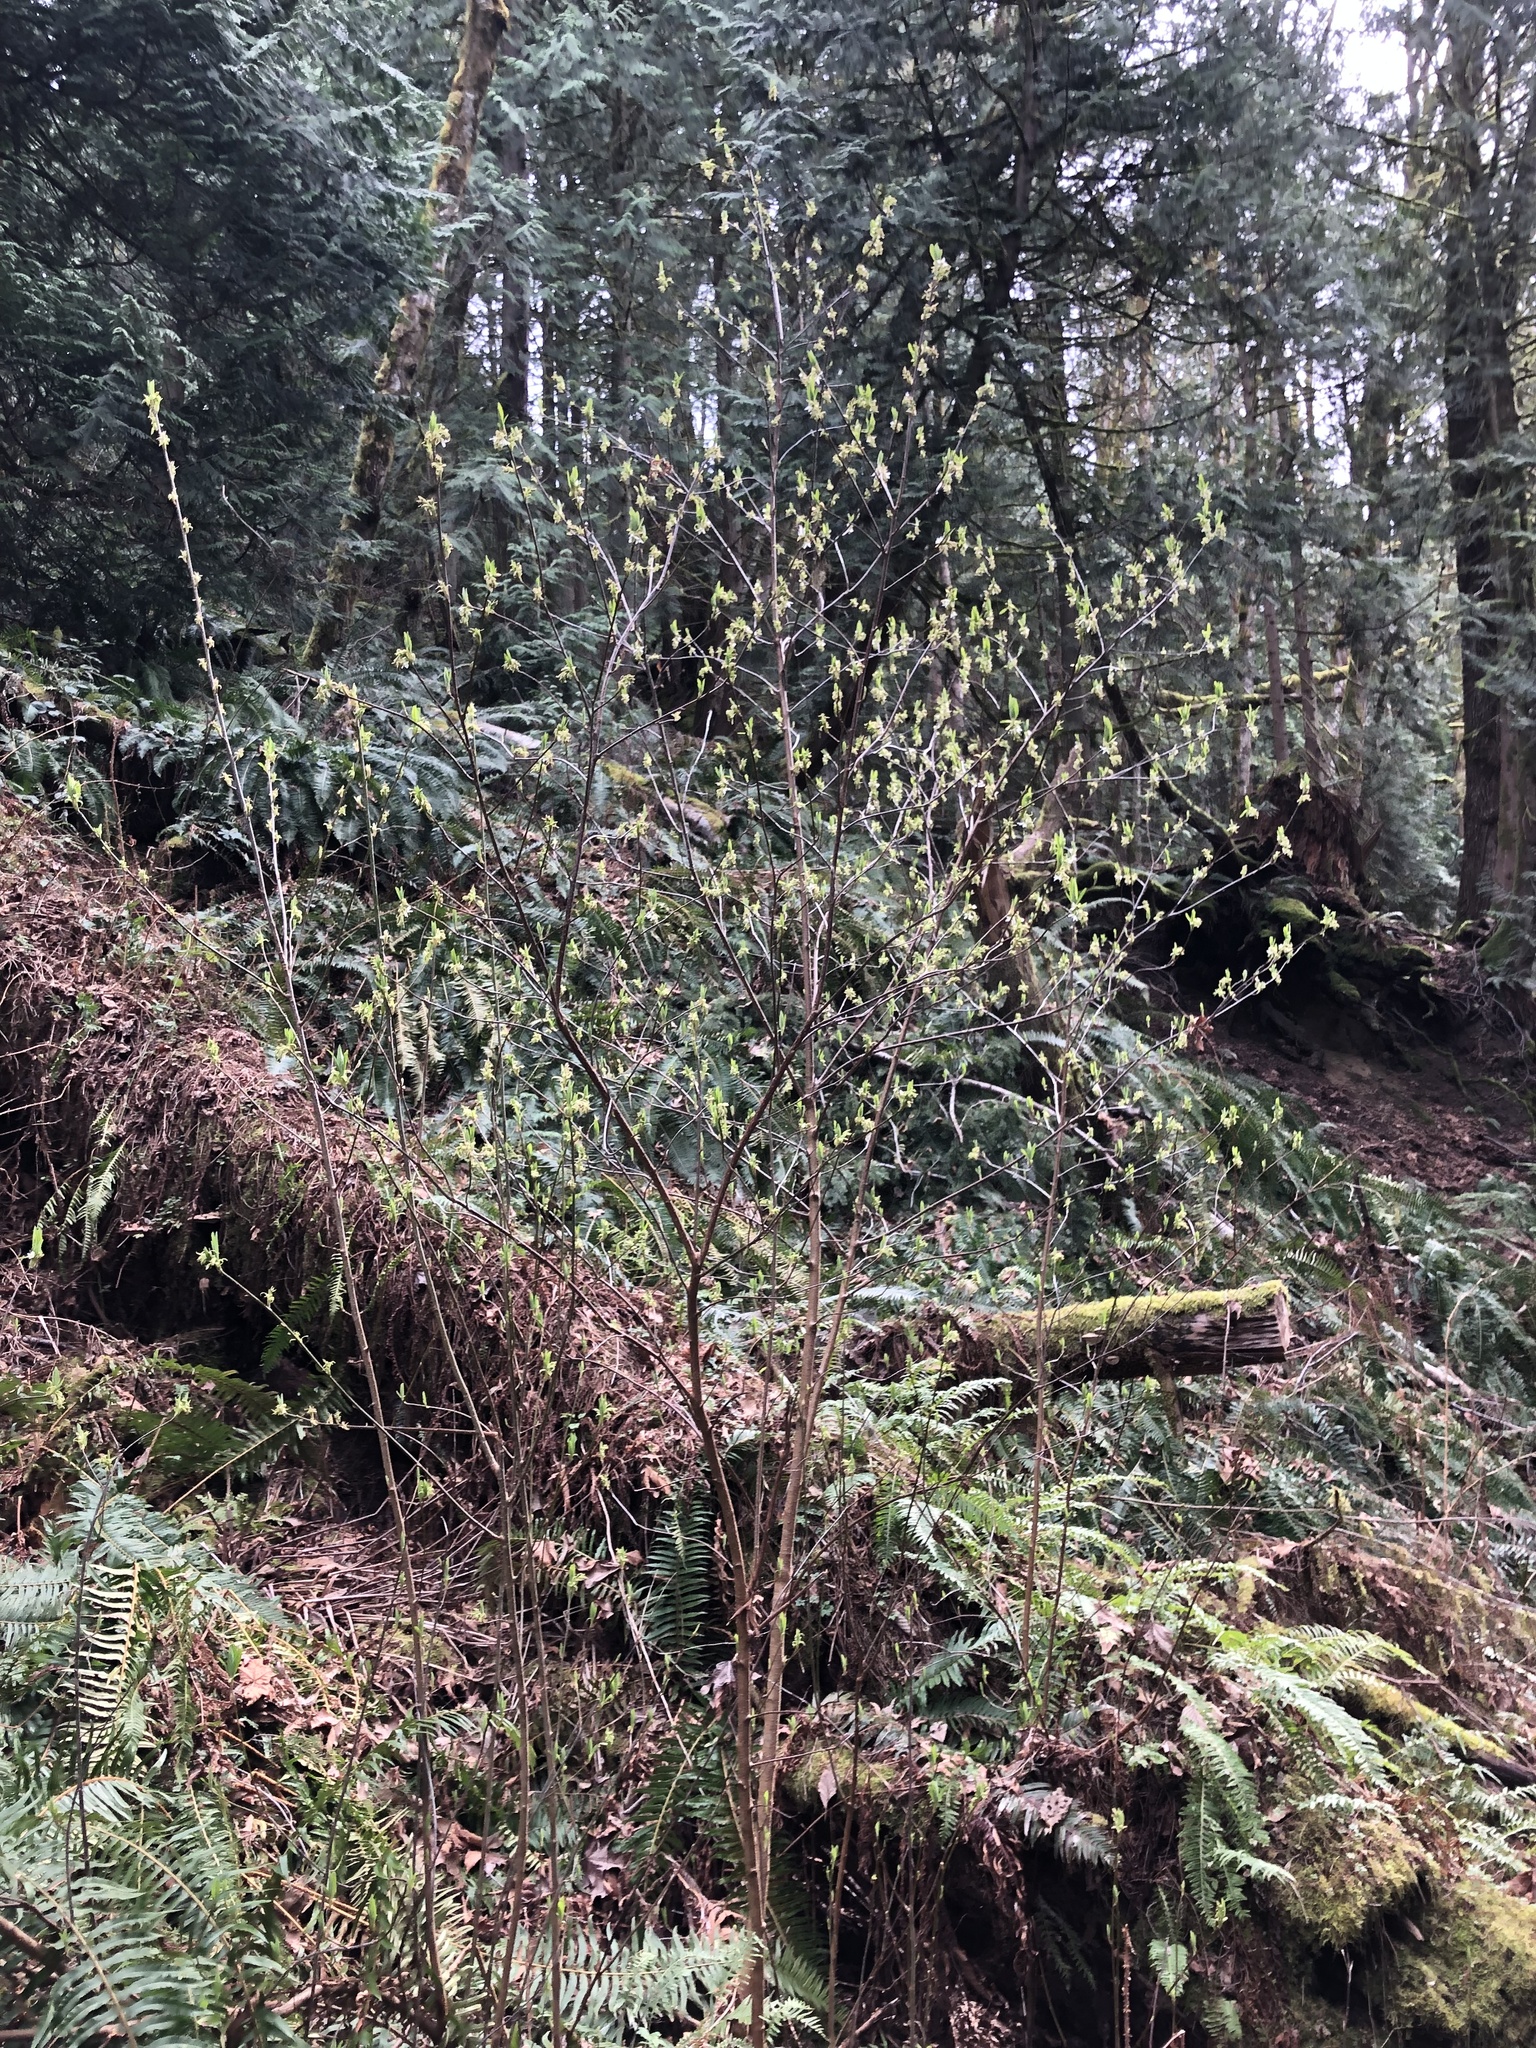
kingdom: Plantae
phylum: Tracheophyta
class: Magnoliopsida
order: Rosales
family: Rosaceae
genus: Oemleria
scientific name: Oemleria cerasiformis
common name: Osoberry
